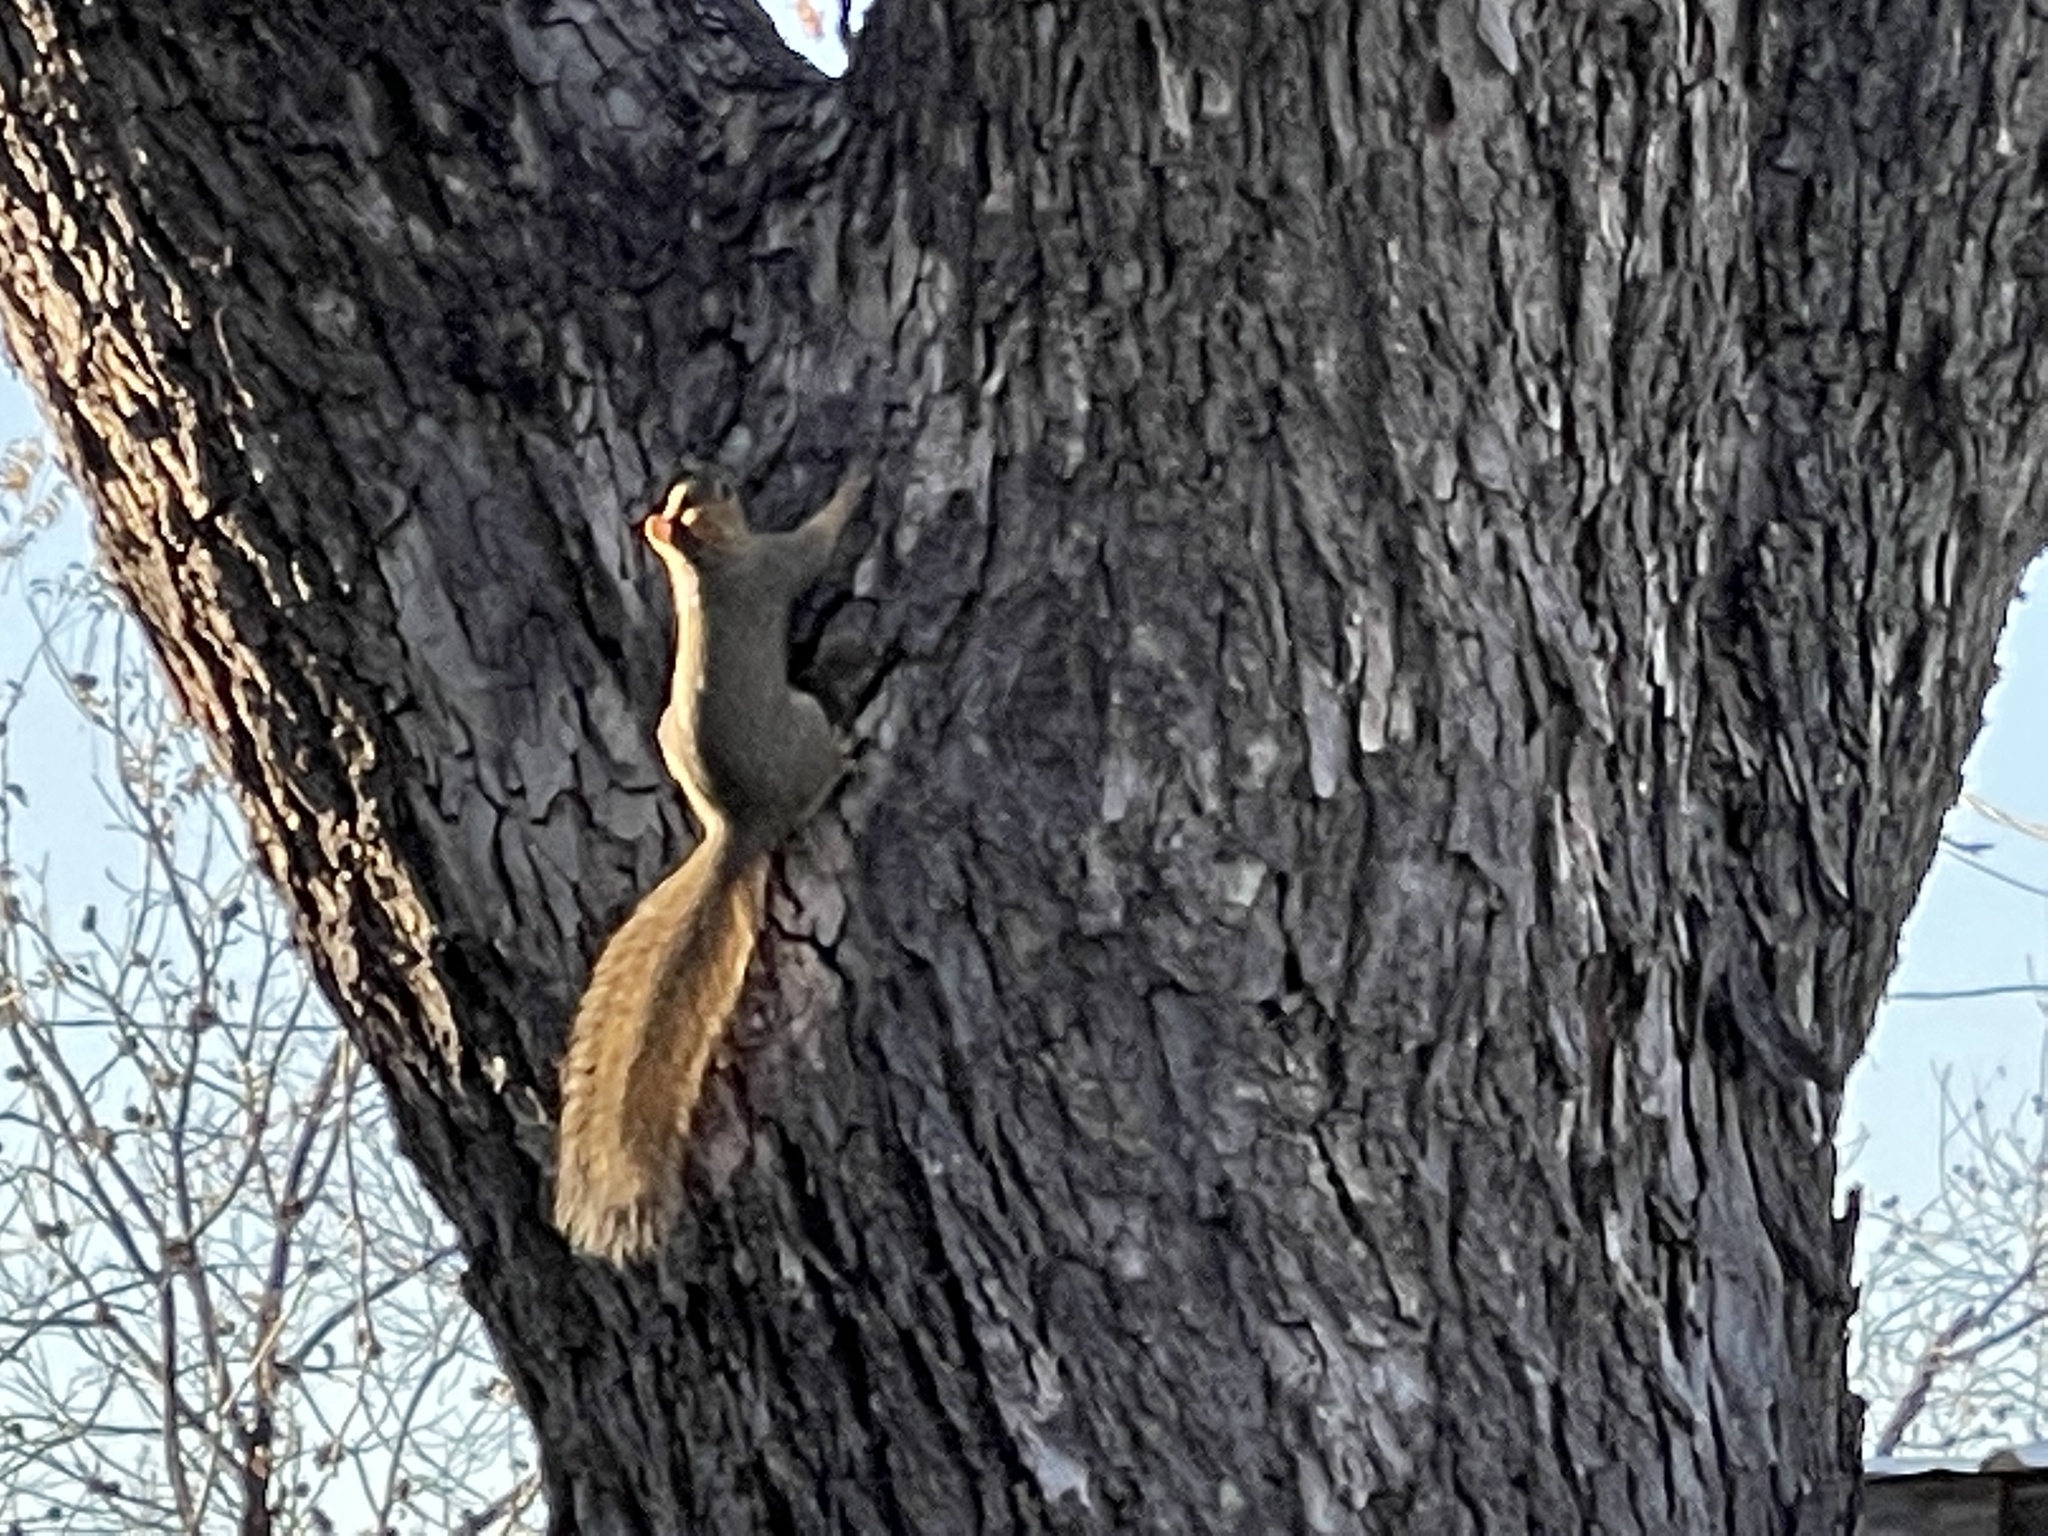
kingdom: Animalia
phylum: Chordata
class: Mammalia
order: Rodentia
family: Sciuridae
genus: Sciurus
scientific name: Sciurus niger
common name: Fox squirrel
